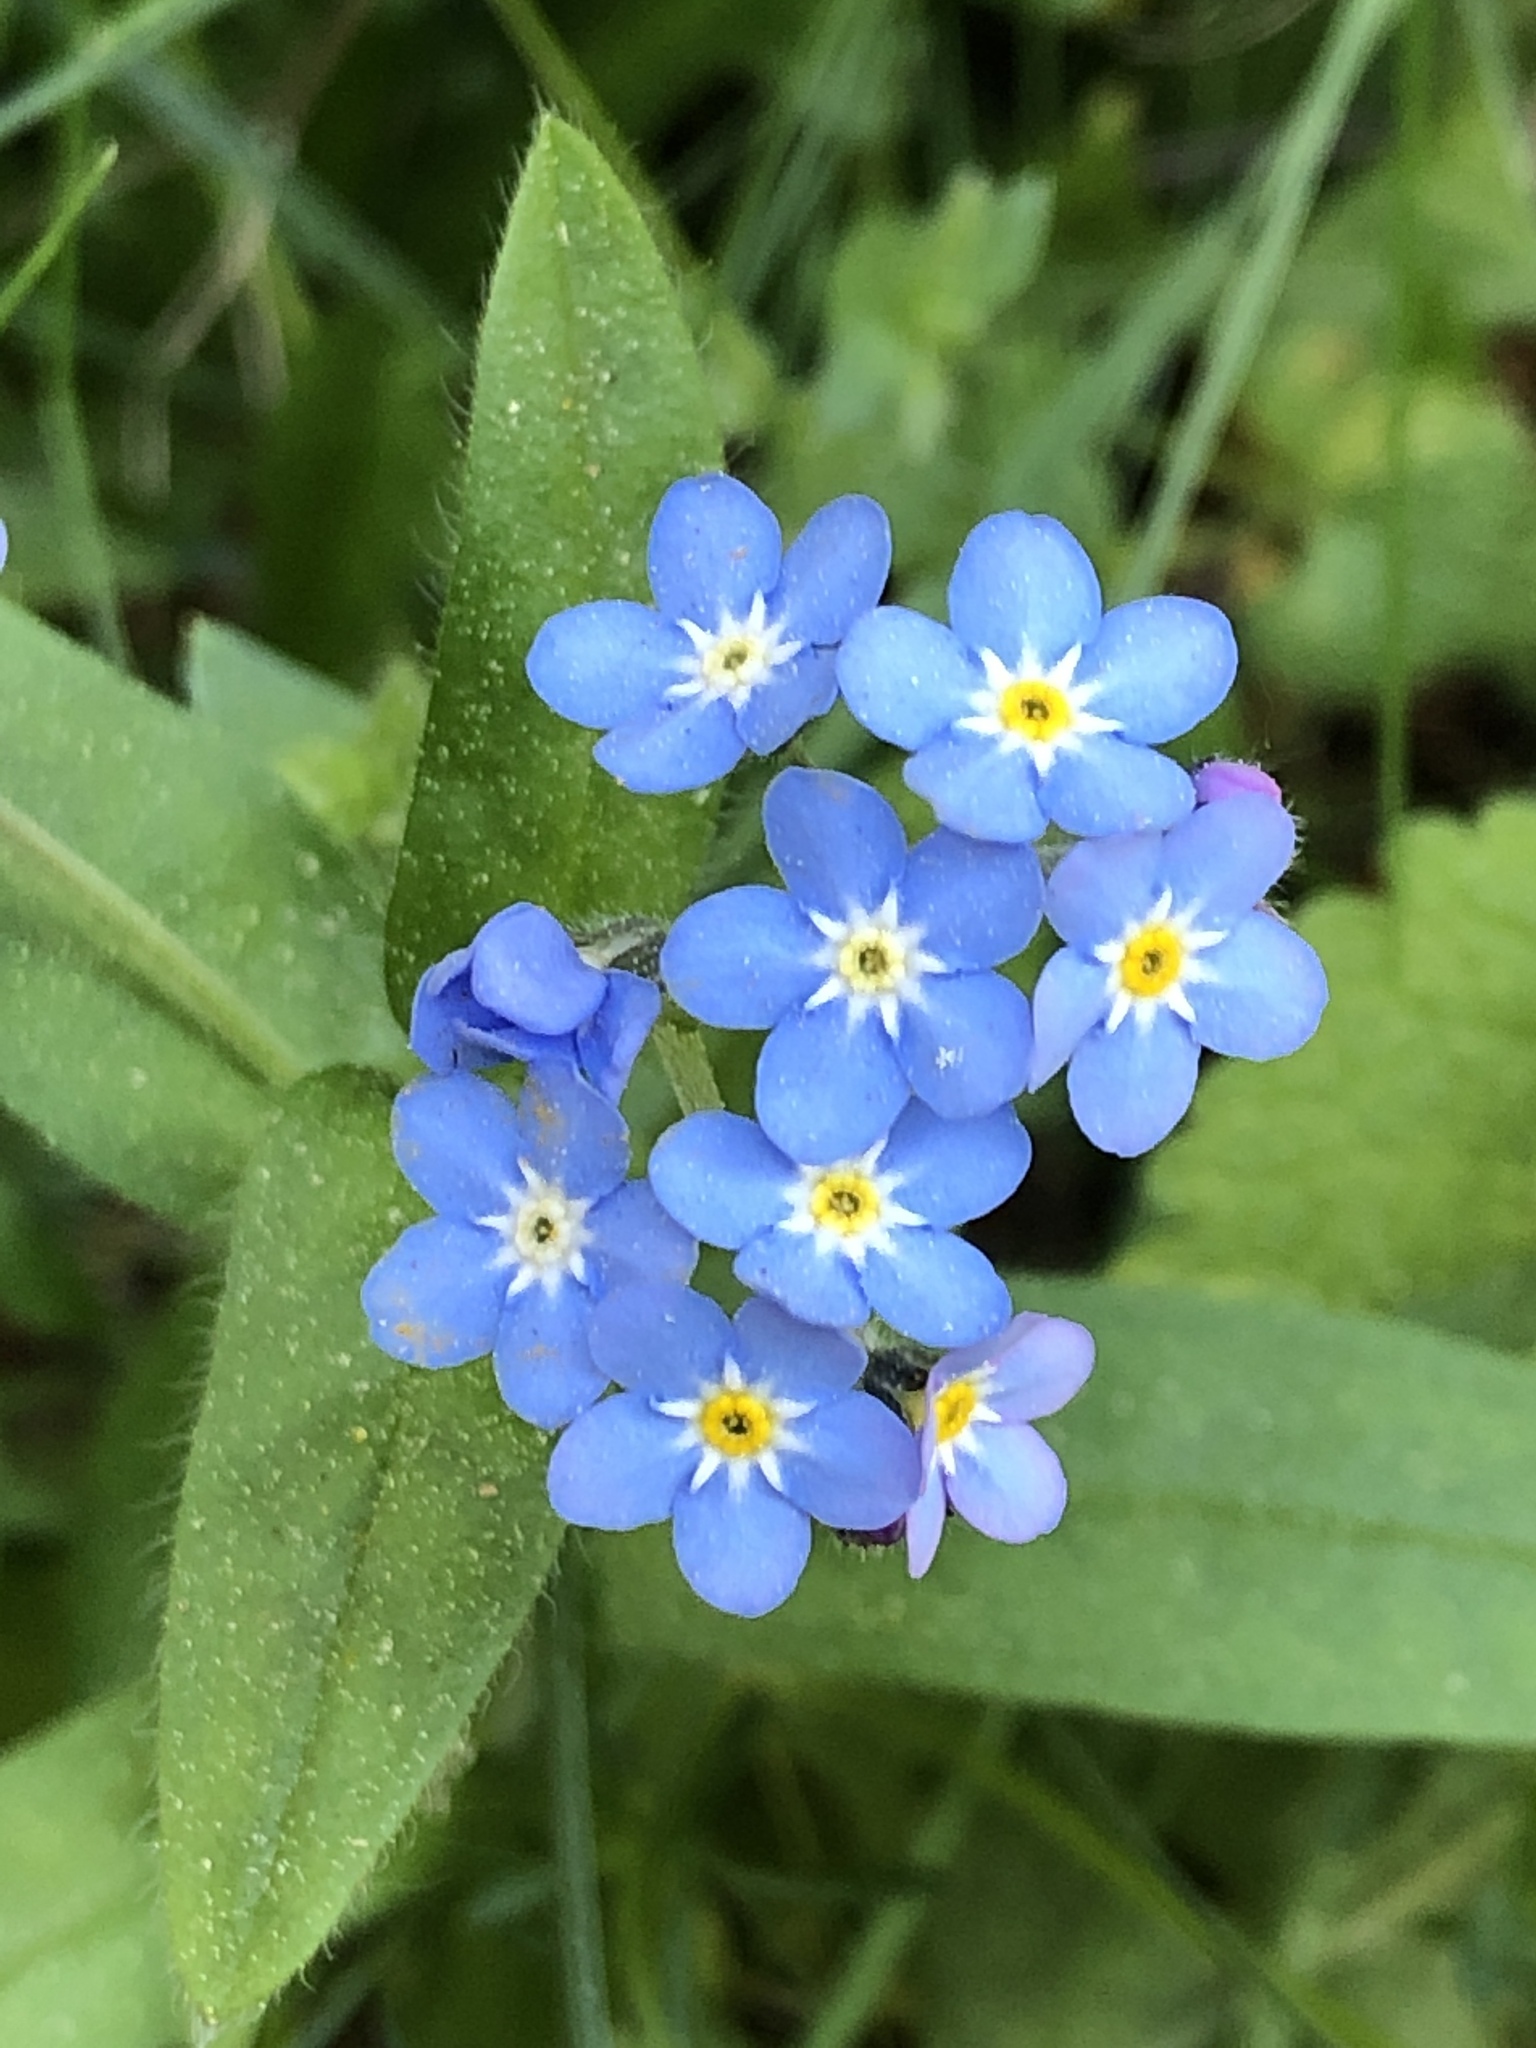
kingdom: Plantae
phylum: Tracheophyta
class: Magnoliopsida
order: Boraginales
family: Boraginaceae
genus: Myosotis
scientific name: Myosotis sylvatica
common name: Wood forget-me-not
